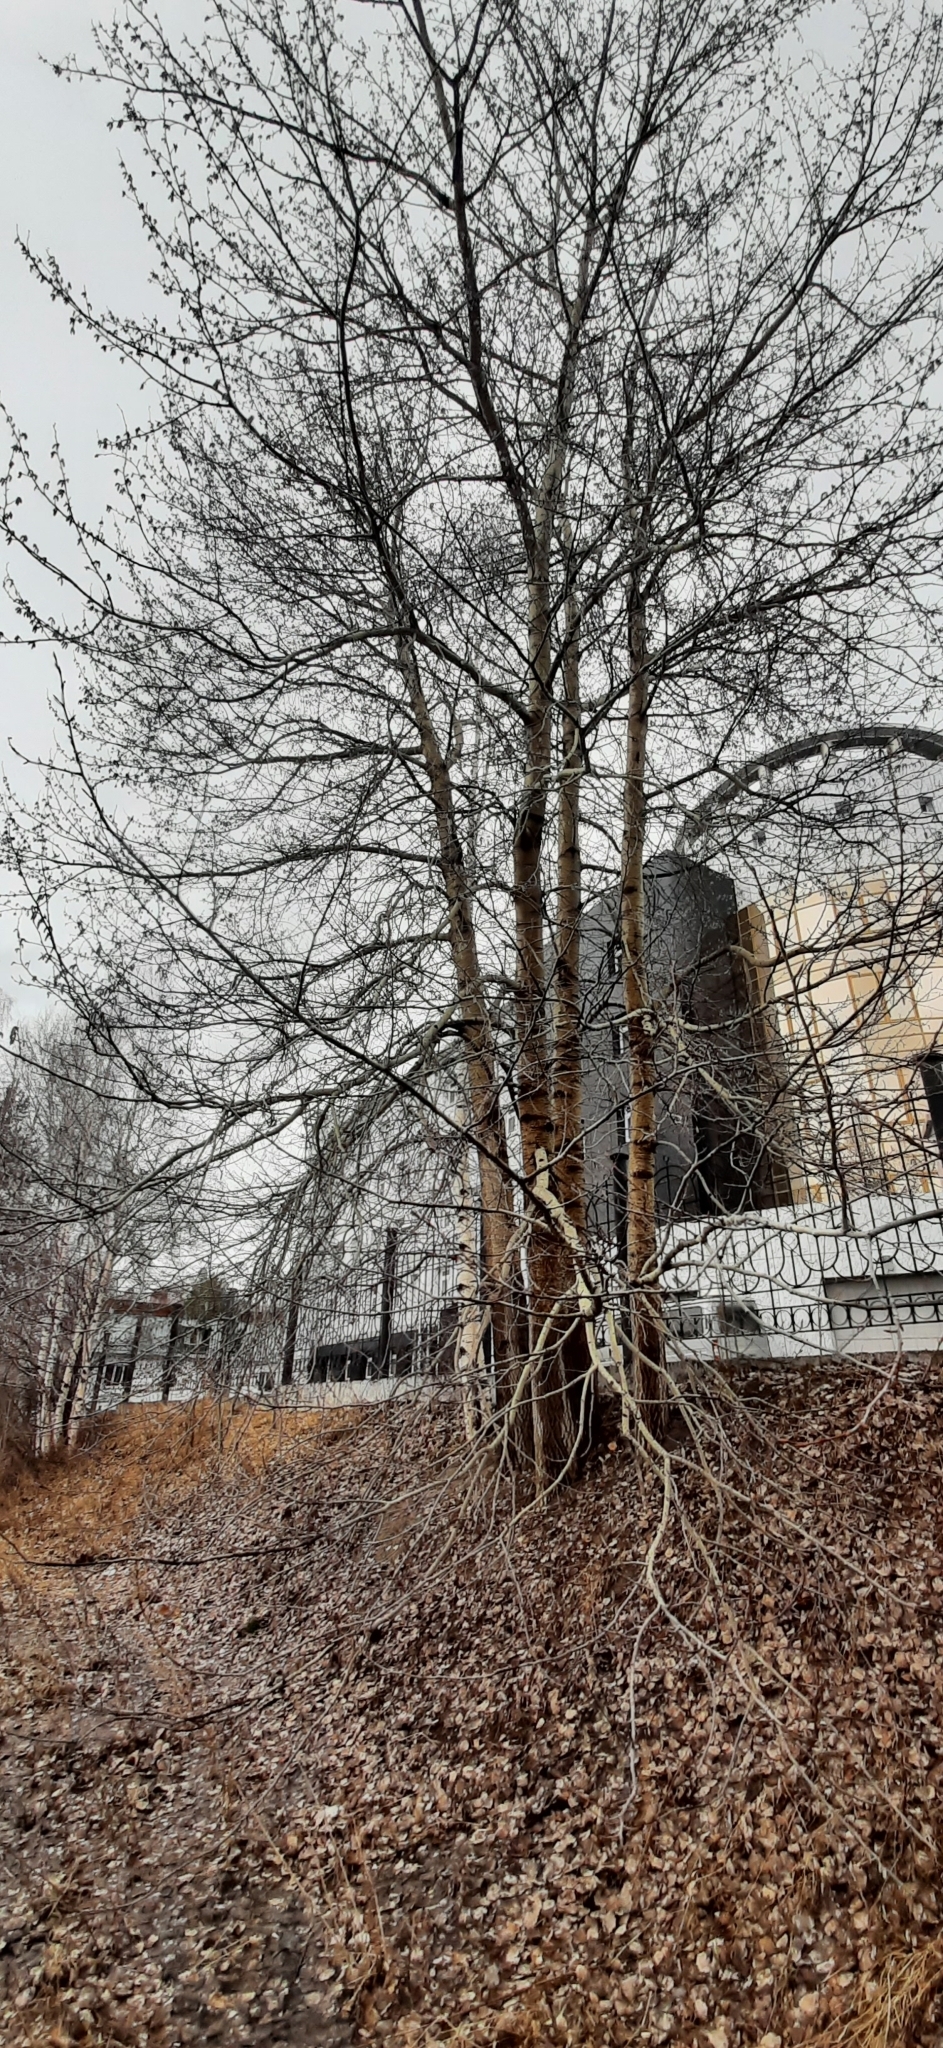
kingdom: Plantae
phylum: Tracheophyta
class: Magnoliopsida
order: Malpighiales
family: Salicaceae
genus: Populus
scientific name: Populus sibirica
